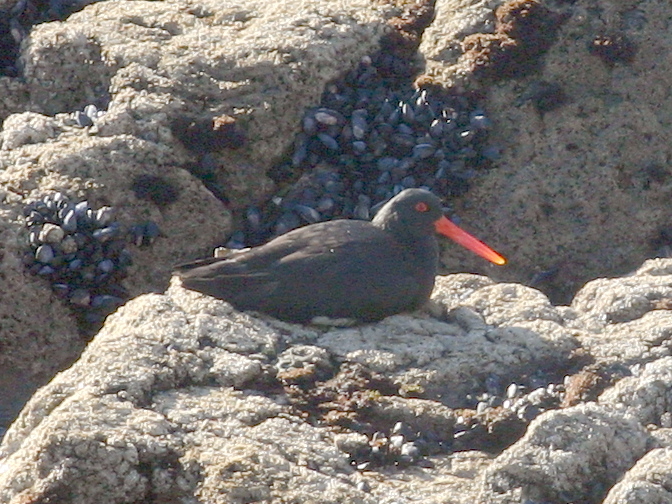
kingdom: Animalia
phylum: Chordata
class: Aves
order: Charadriiformes
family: Haematopodidae
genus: Haematopus
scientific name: Haematopus unicolor
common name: Variable oystercatcher
